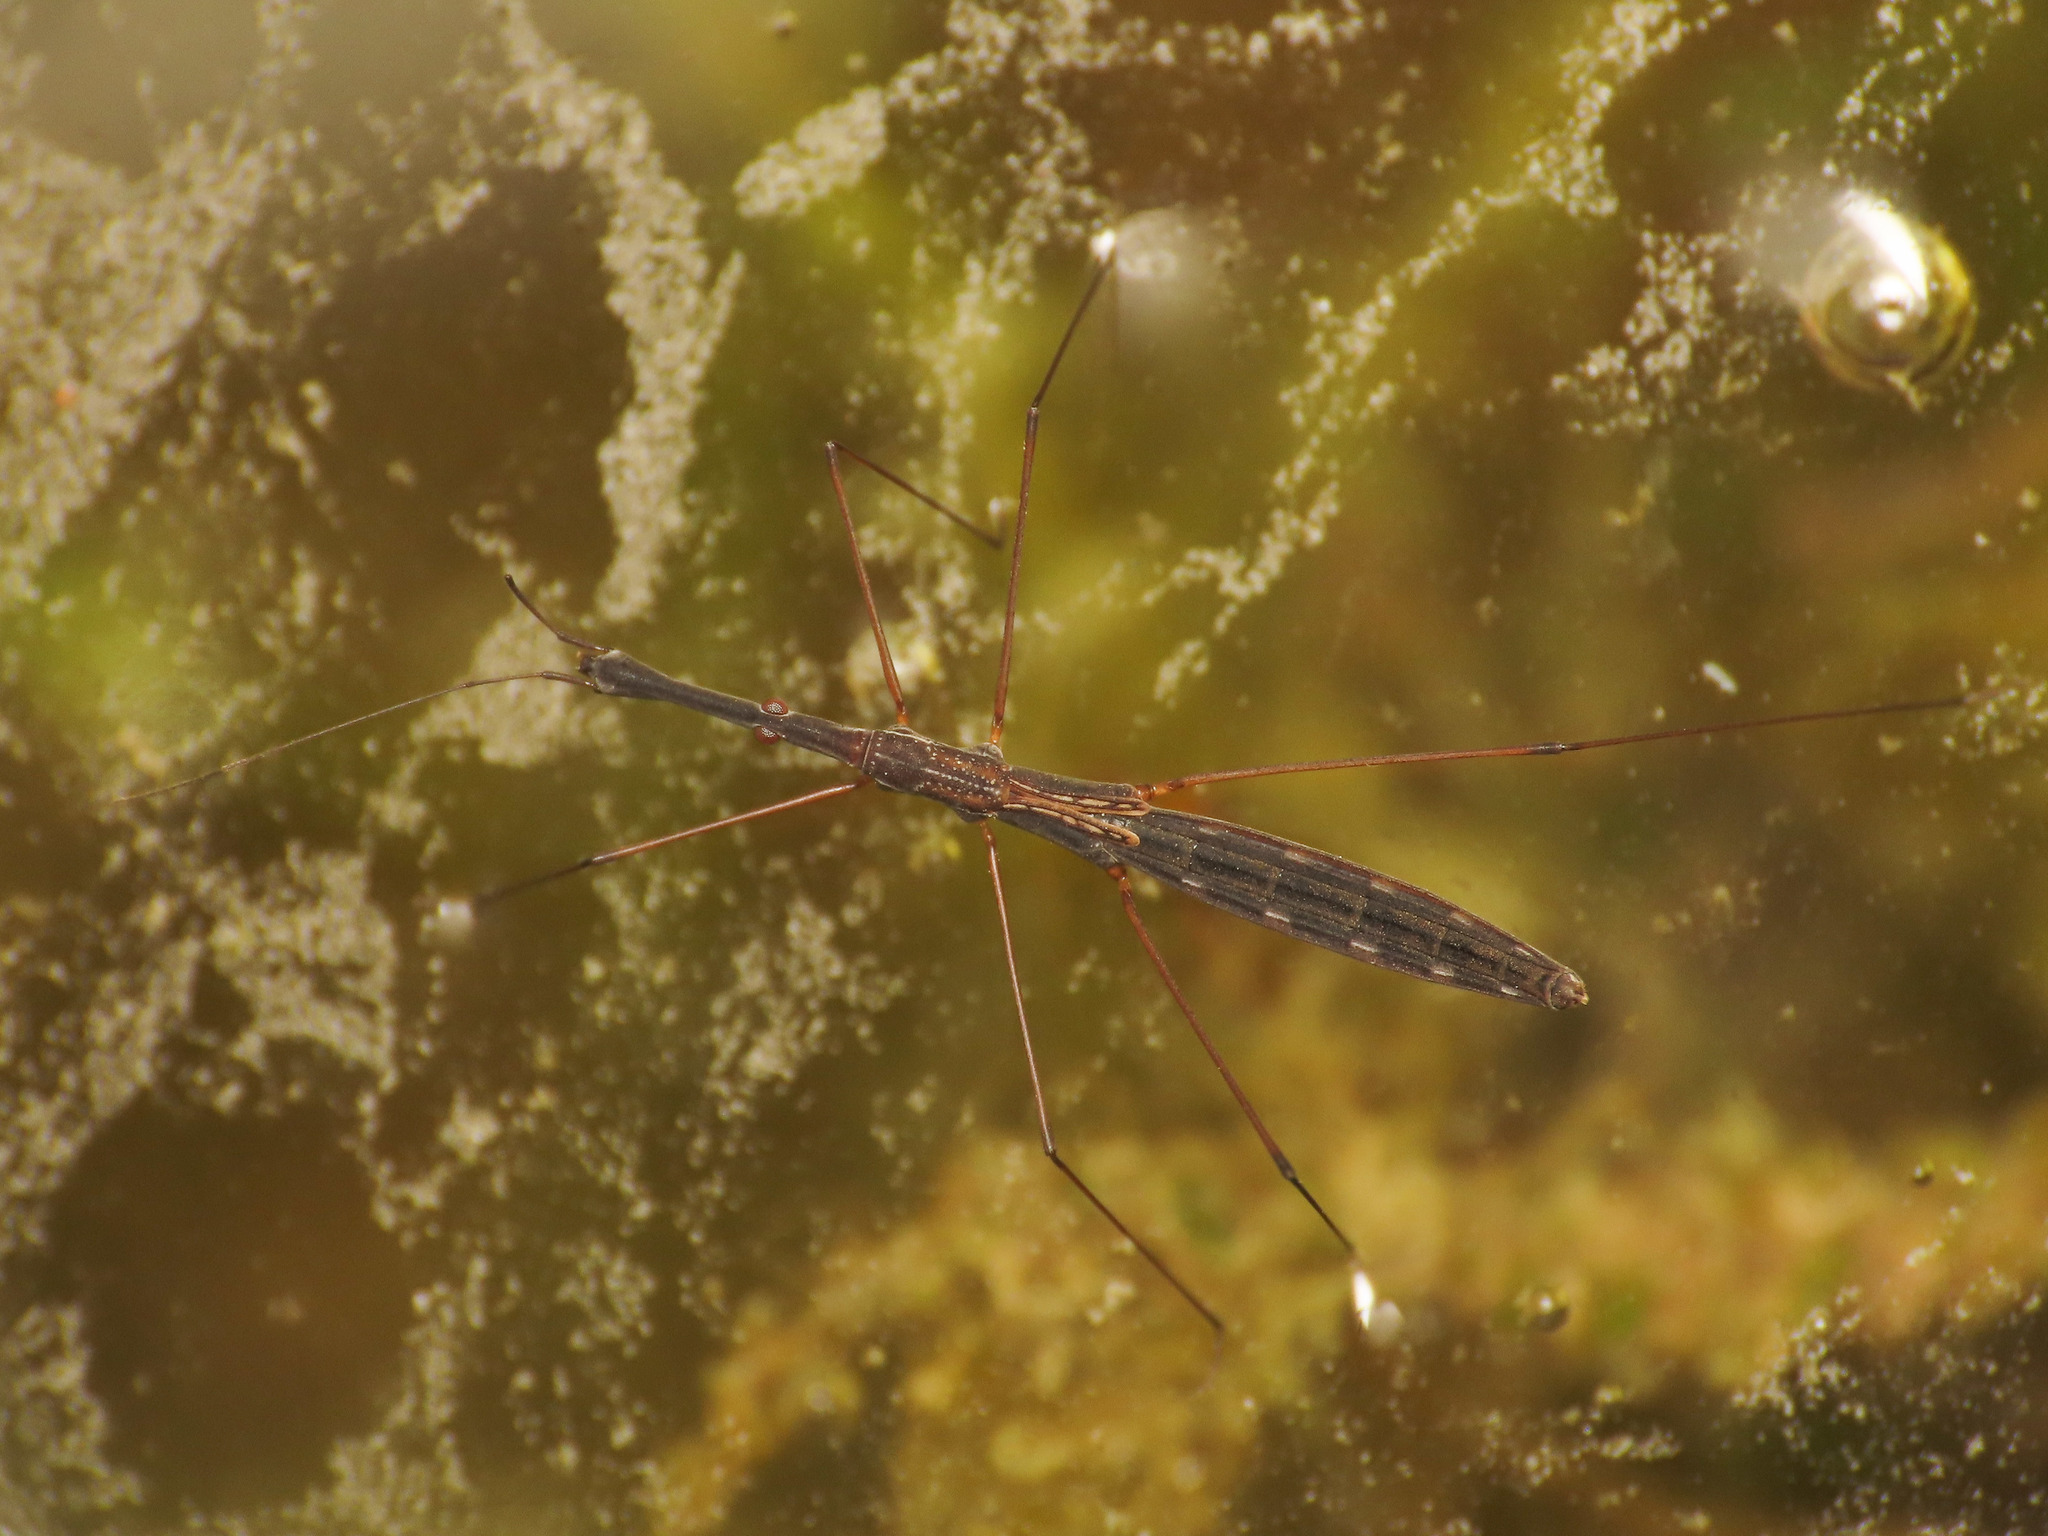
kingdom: Animalia
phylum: Arthropoda
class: Insecta
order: Hemiptera
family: Hydrometridae
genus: Hydrometra
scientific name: Hydrometra stagnorum
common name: Water measurer
